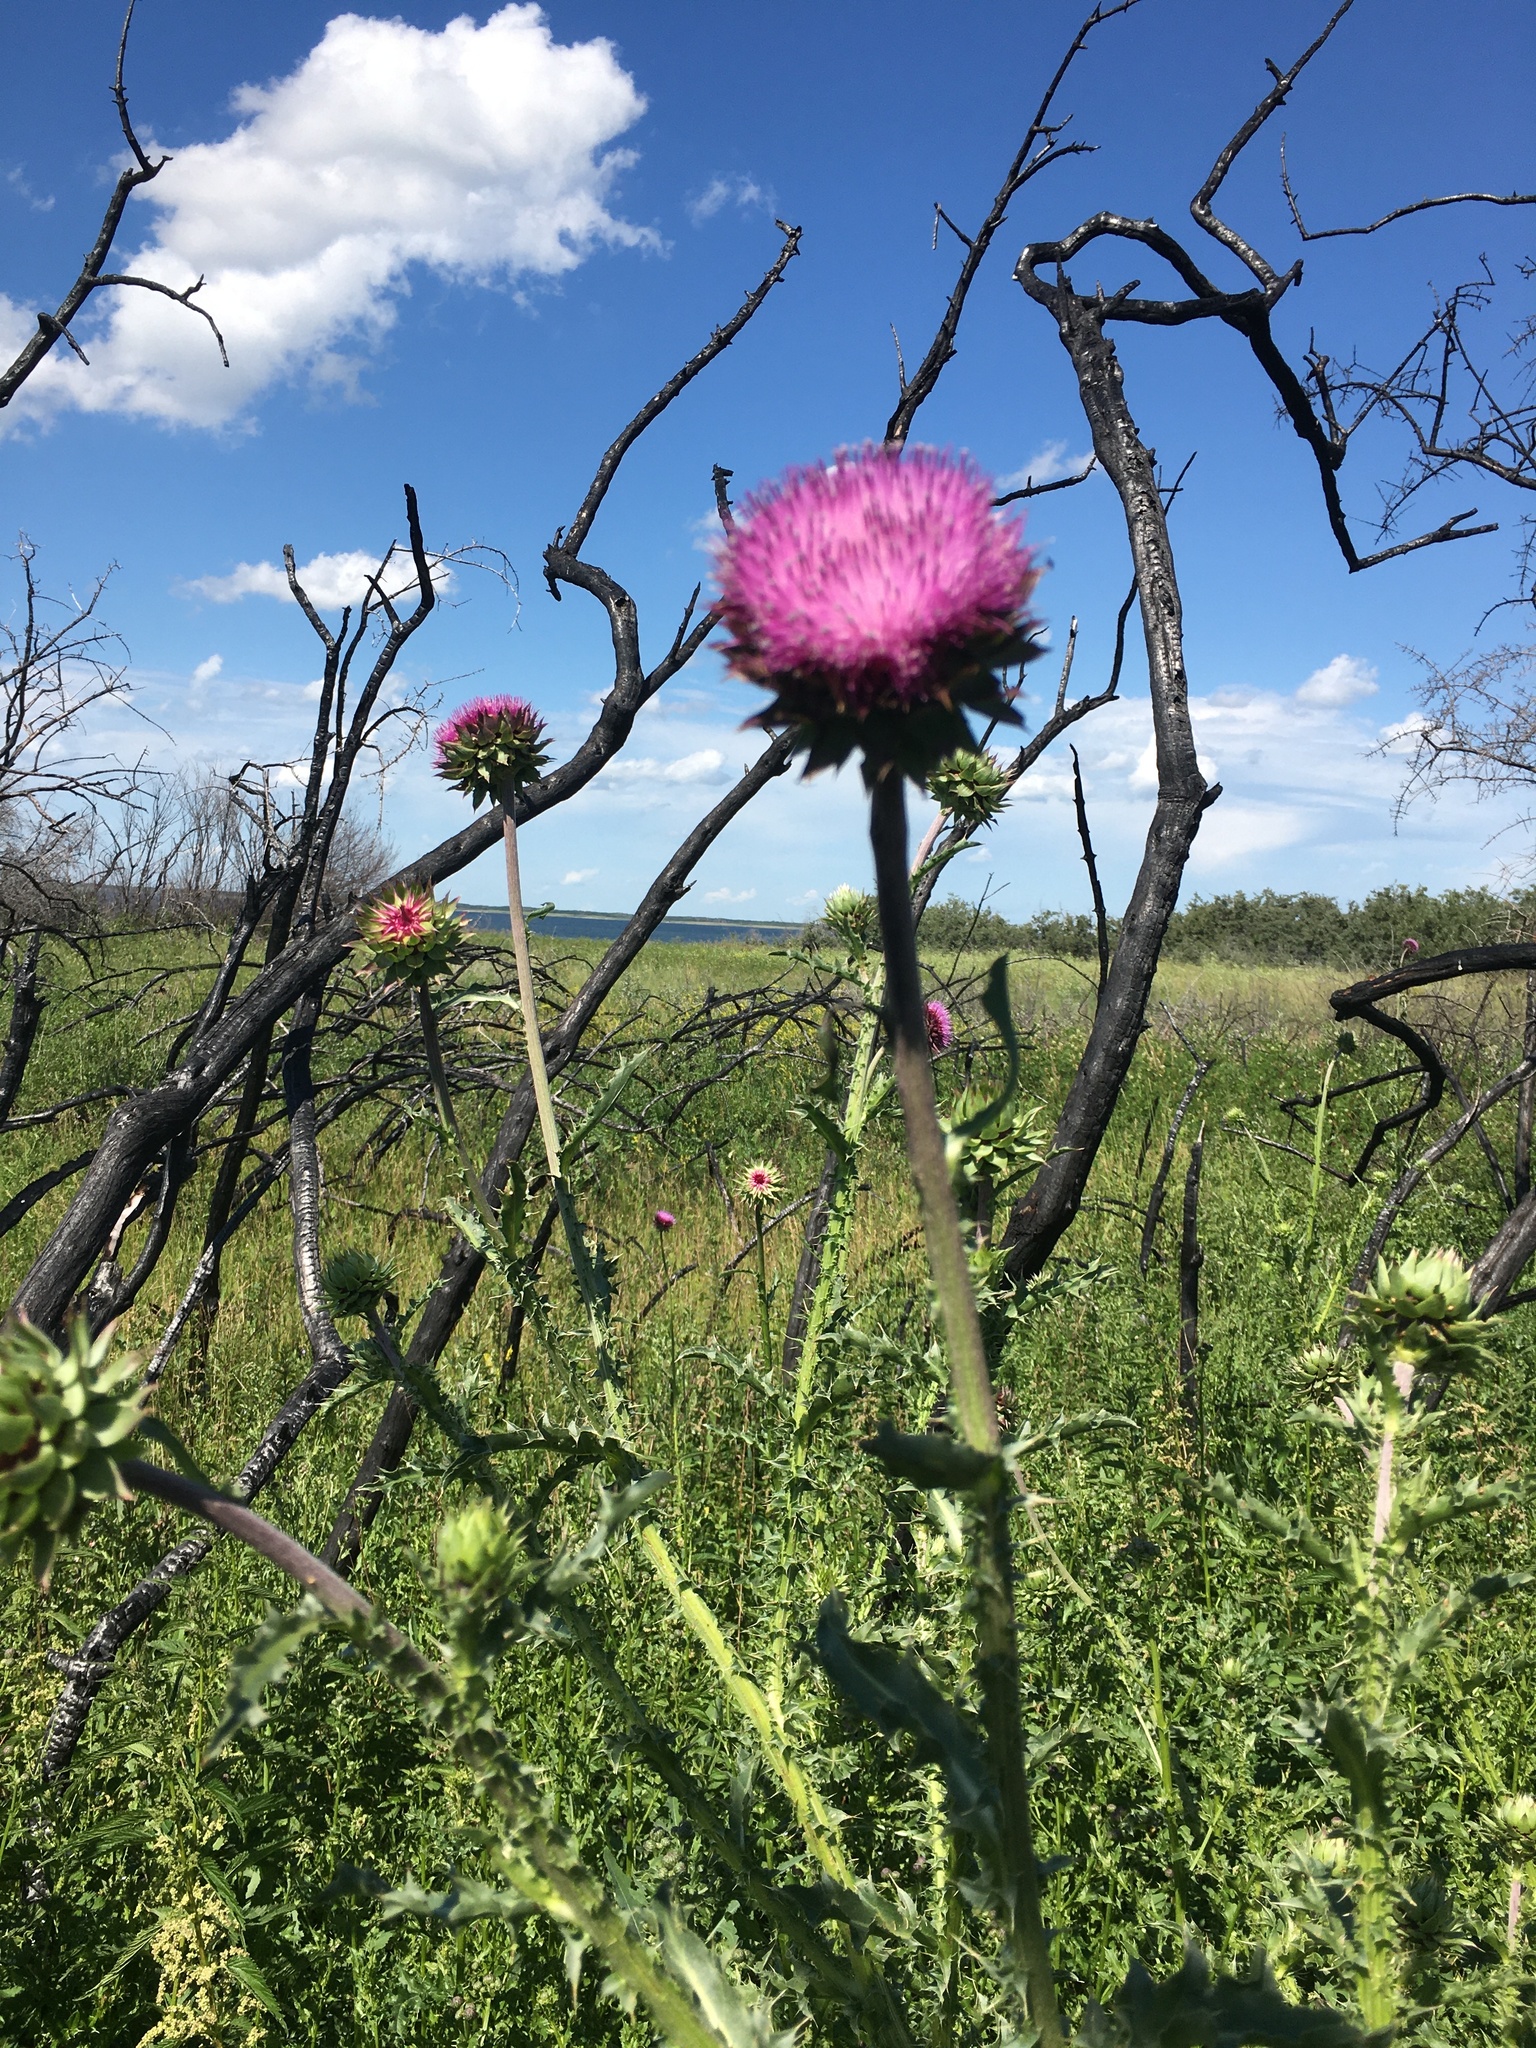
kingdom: Plantae
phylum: Tracheophyta
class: Magnoliopsida
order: Asterales
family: Asteraceae
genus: Carduus
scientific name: Carduus nutans
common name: Musk thistle
